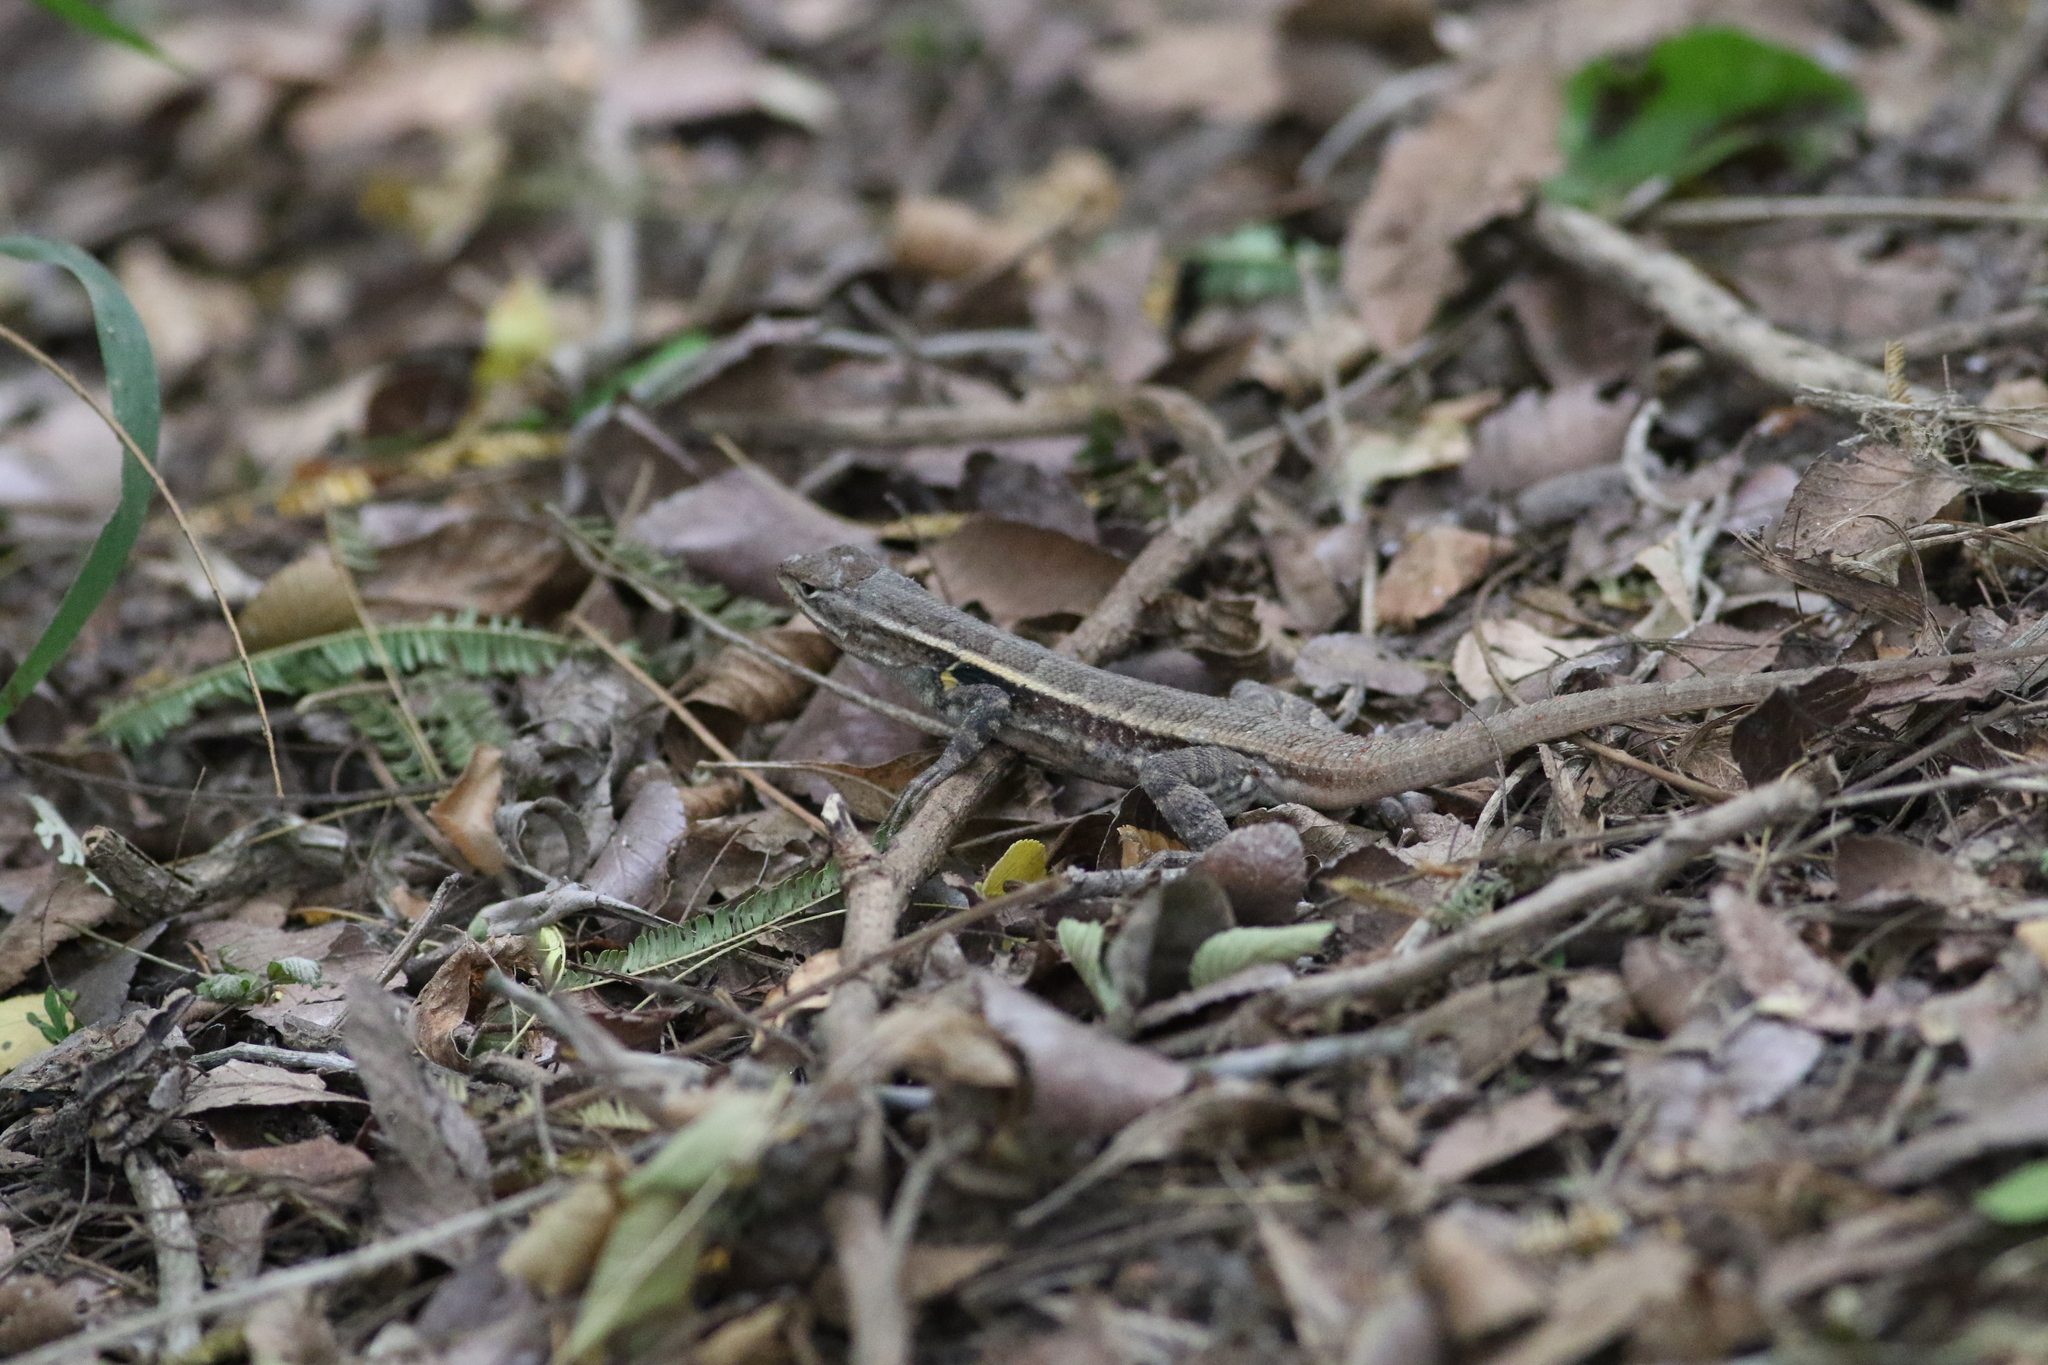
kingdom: Animalia
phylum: Chordata
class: Squamata
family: Phrynosomatidae
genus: Sceloporus
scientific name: Sceloporus variabilis
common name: Rosebelly lizard
